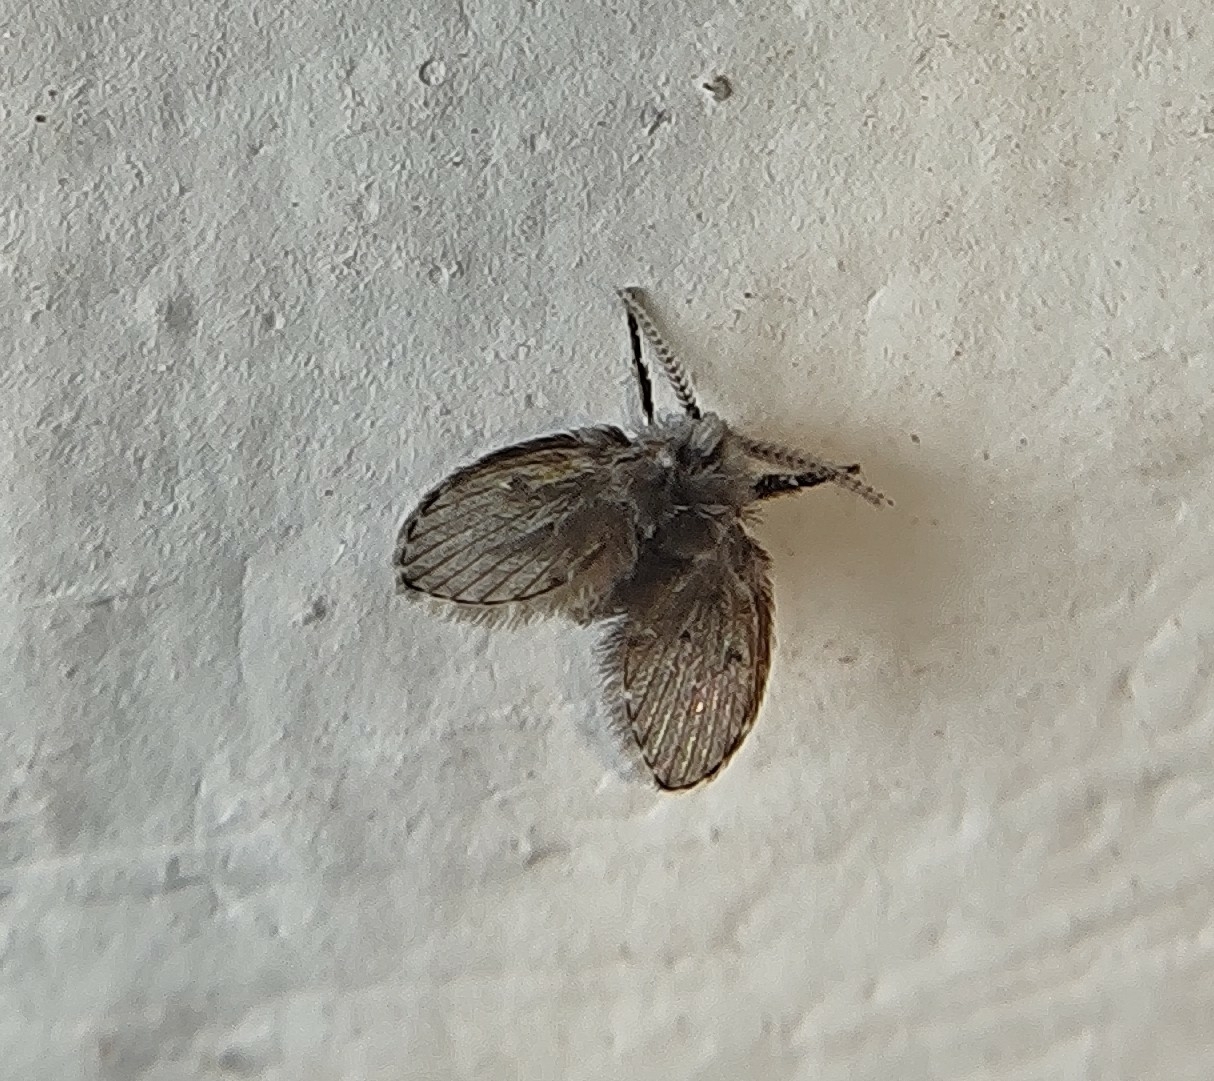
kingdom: Animalia
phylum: Arthropoda
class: Insecta
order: Diptera
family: Psychodidae
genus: Clogmia
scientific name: Clogmia albipunctatus
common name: White-spotted moth fly
